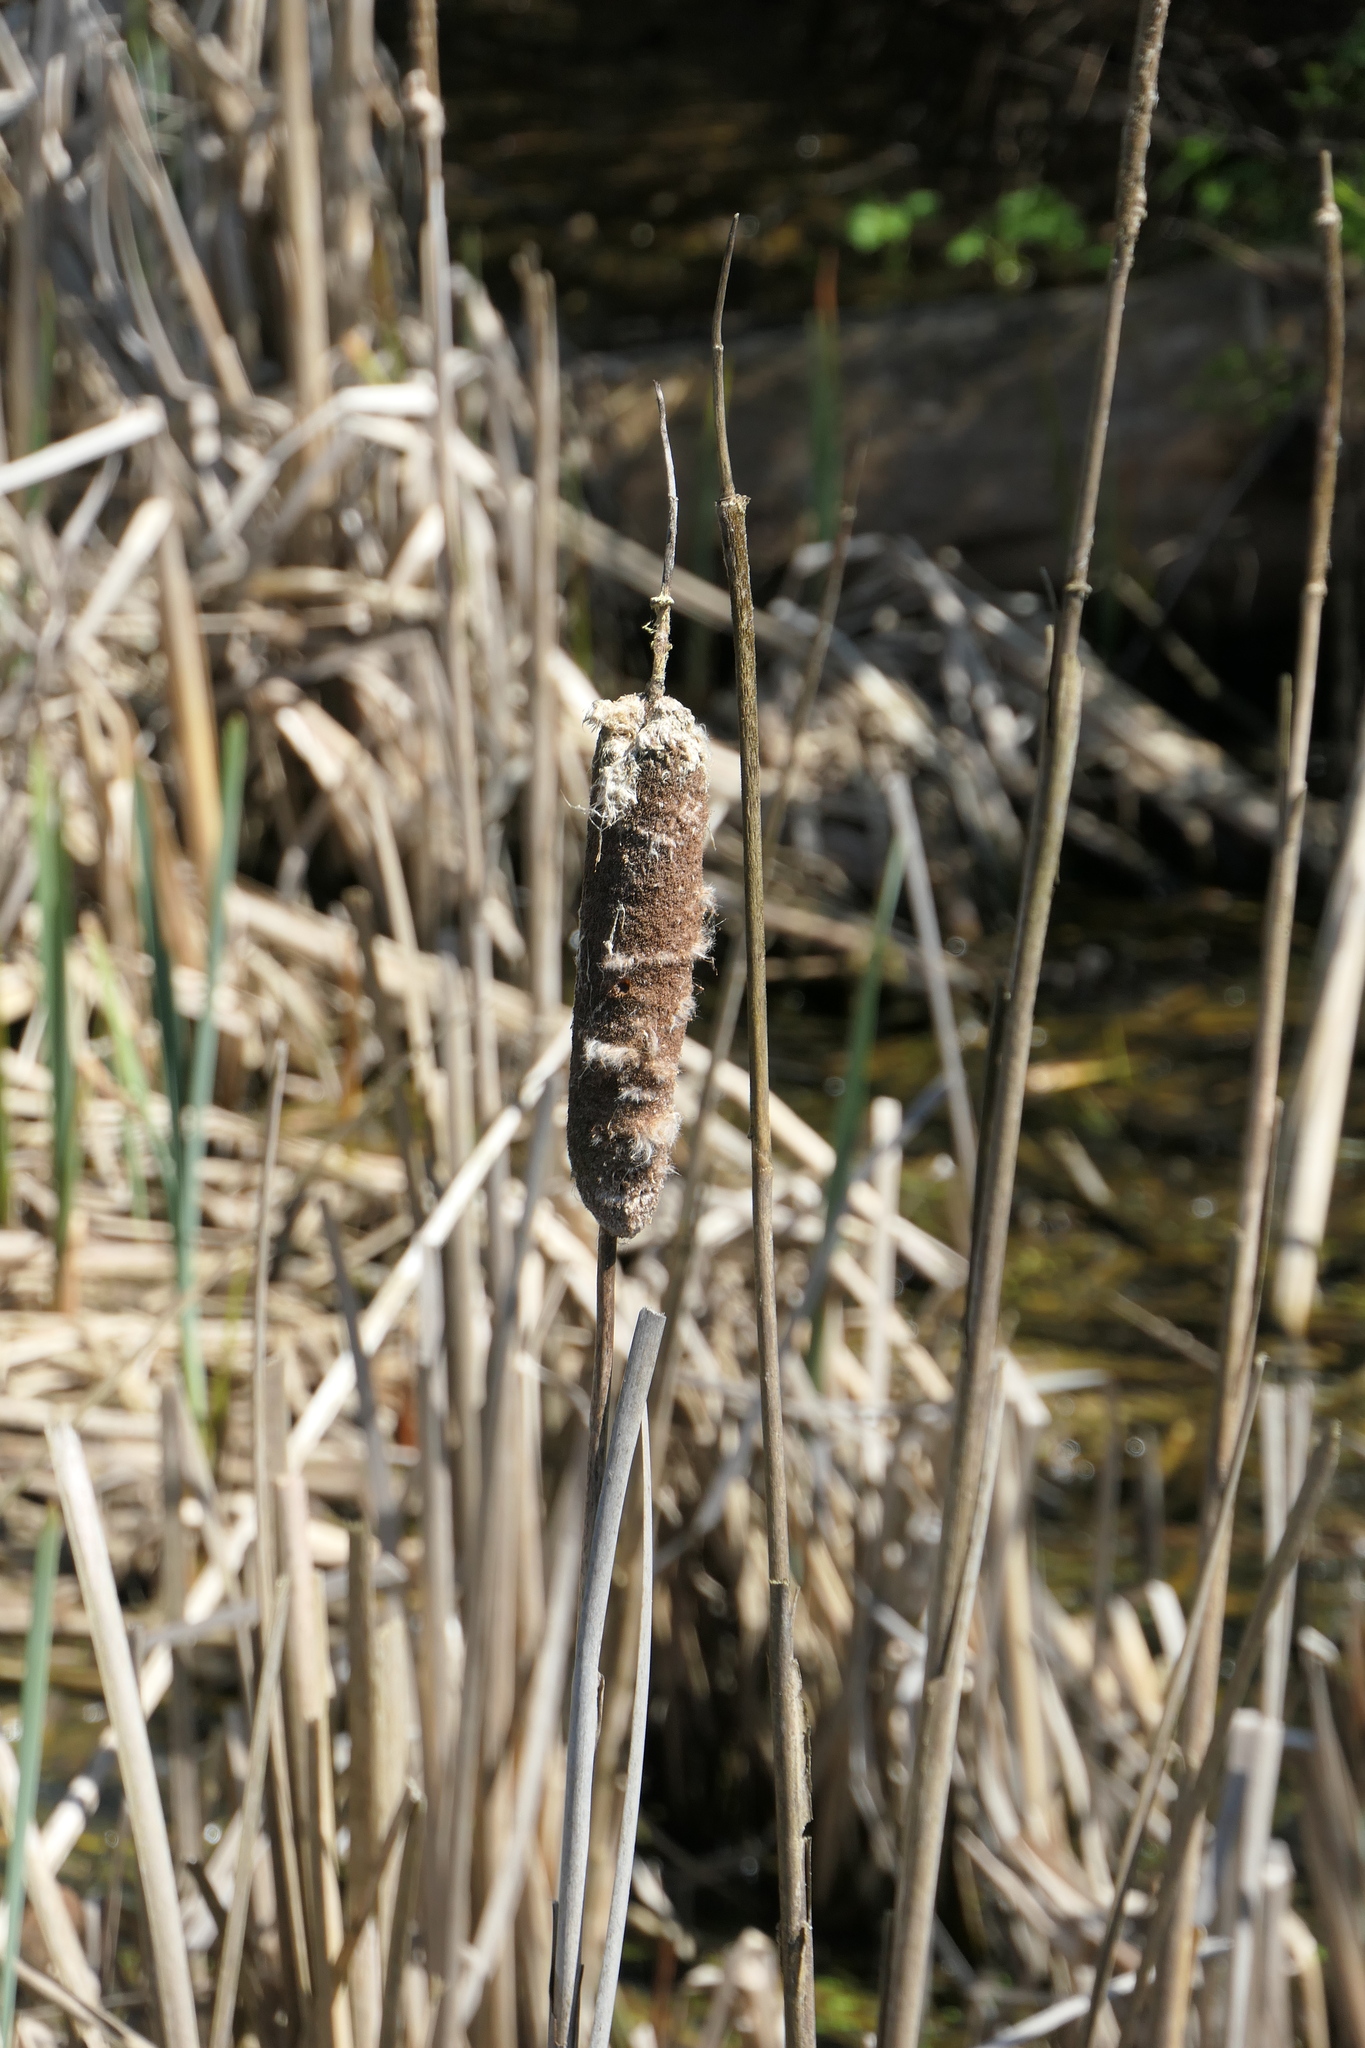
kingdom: Plantae
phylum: Tracheophyta
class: Liliopsida
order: Poales
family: Typhaceae
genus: Typha
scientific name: Typha latifolia
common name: Broadleaf cattail
